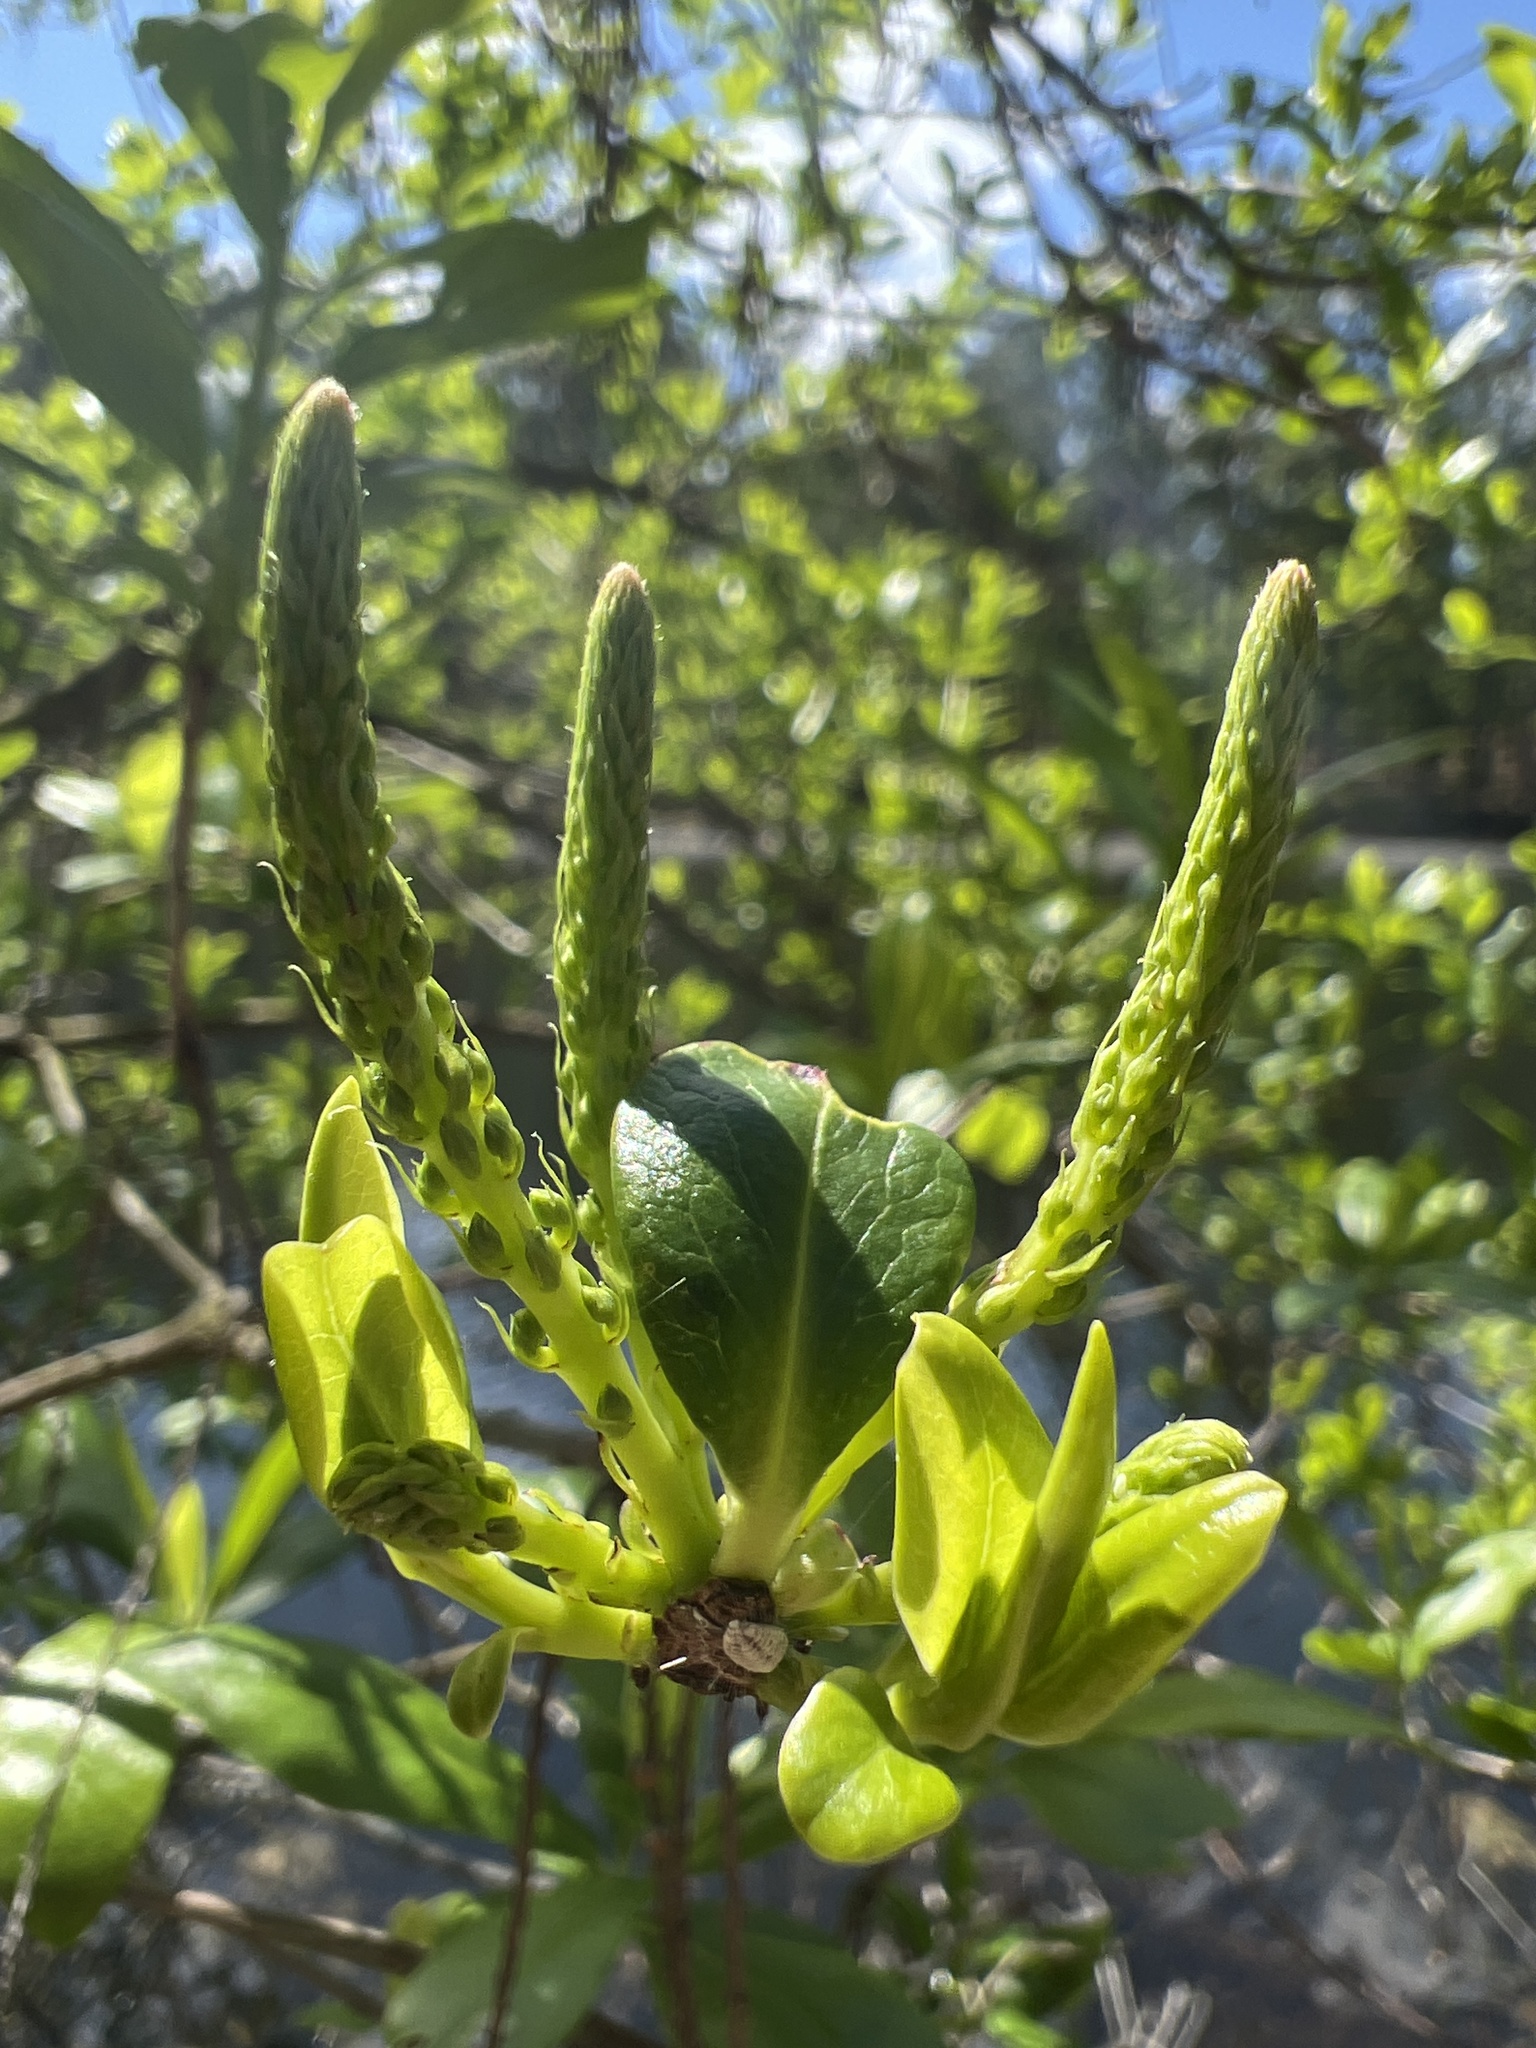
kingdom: Plantae
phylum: Tracheophyta
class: Magnoliopsida
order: Ericales
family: Cyrillaceae
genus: Cyrilla
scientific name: Cyrilla racemiflora
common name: Black titi
